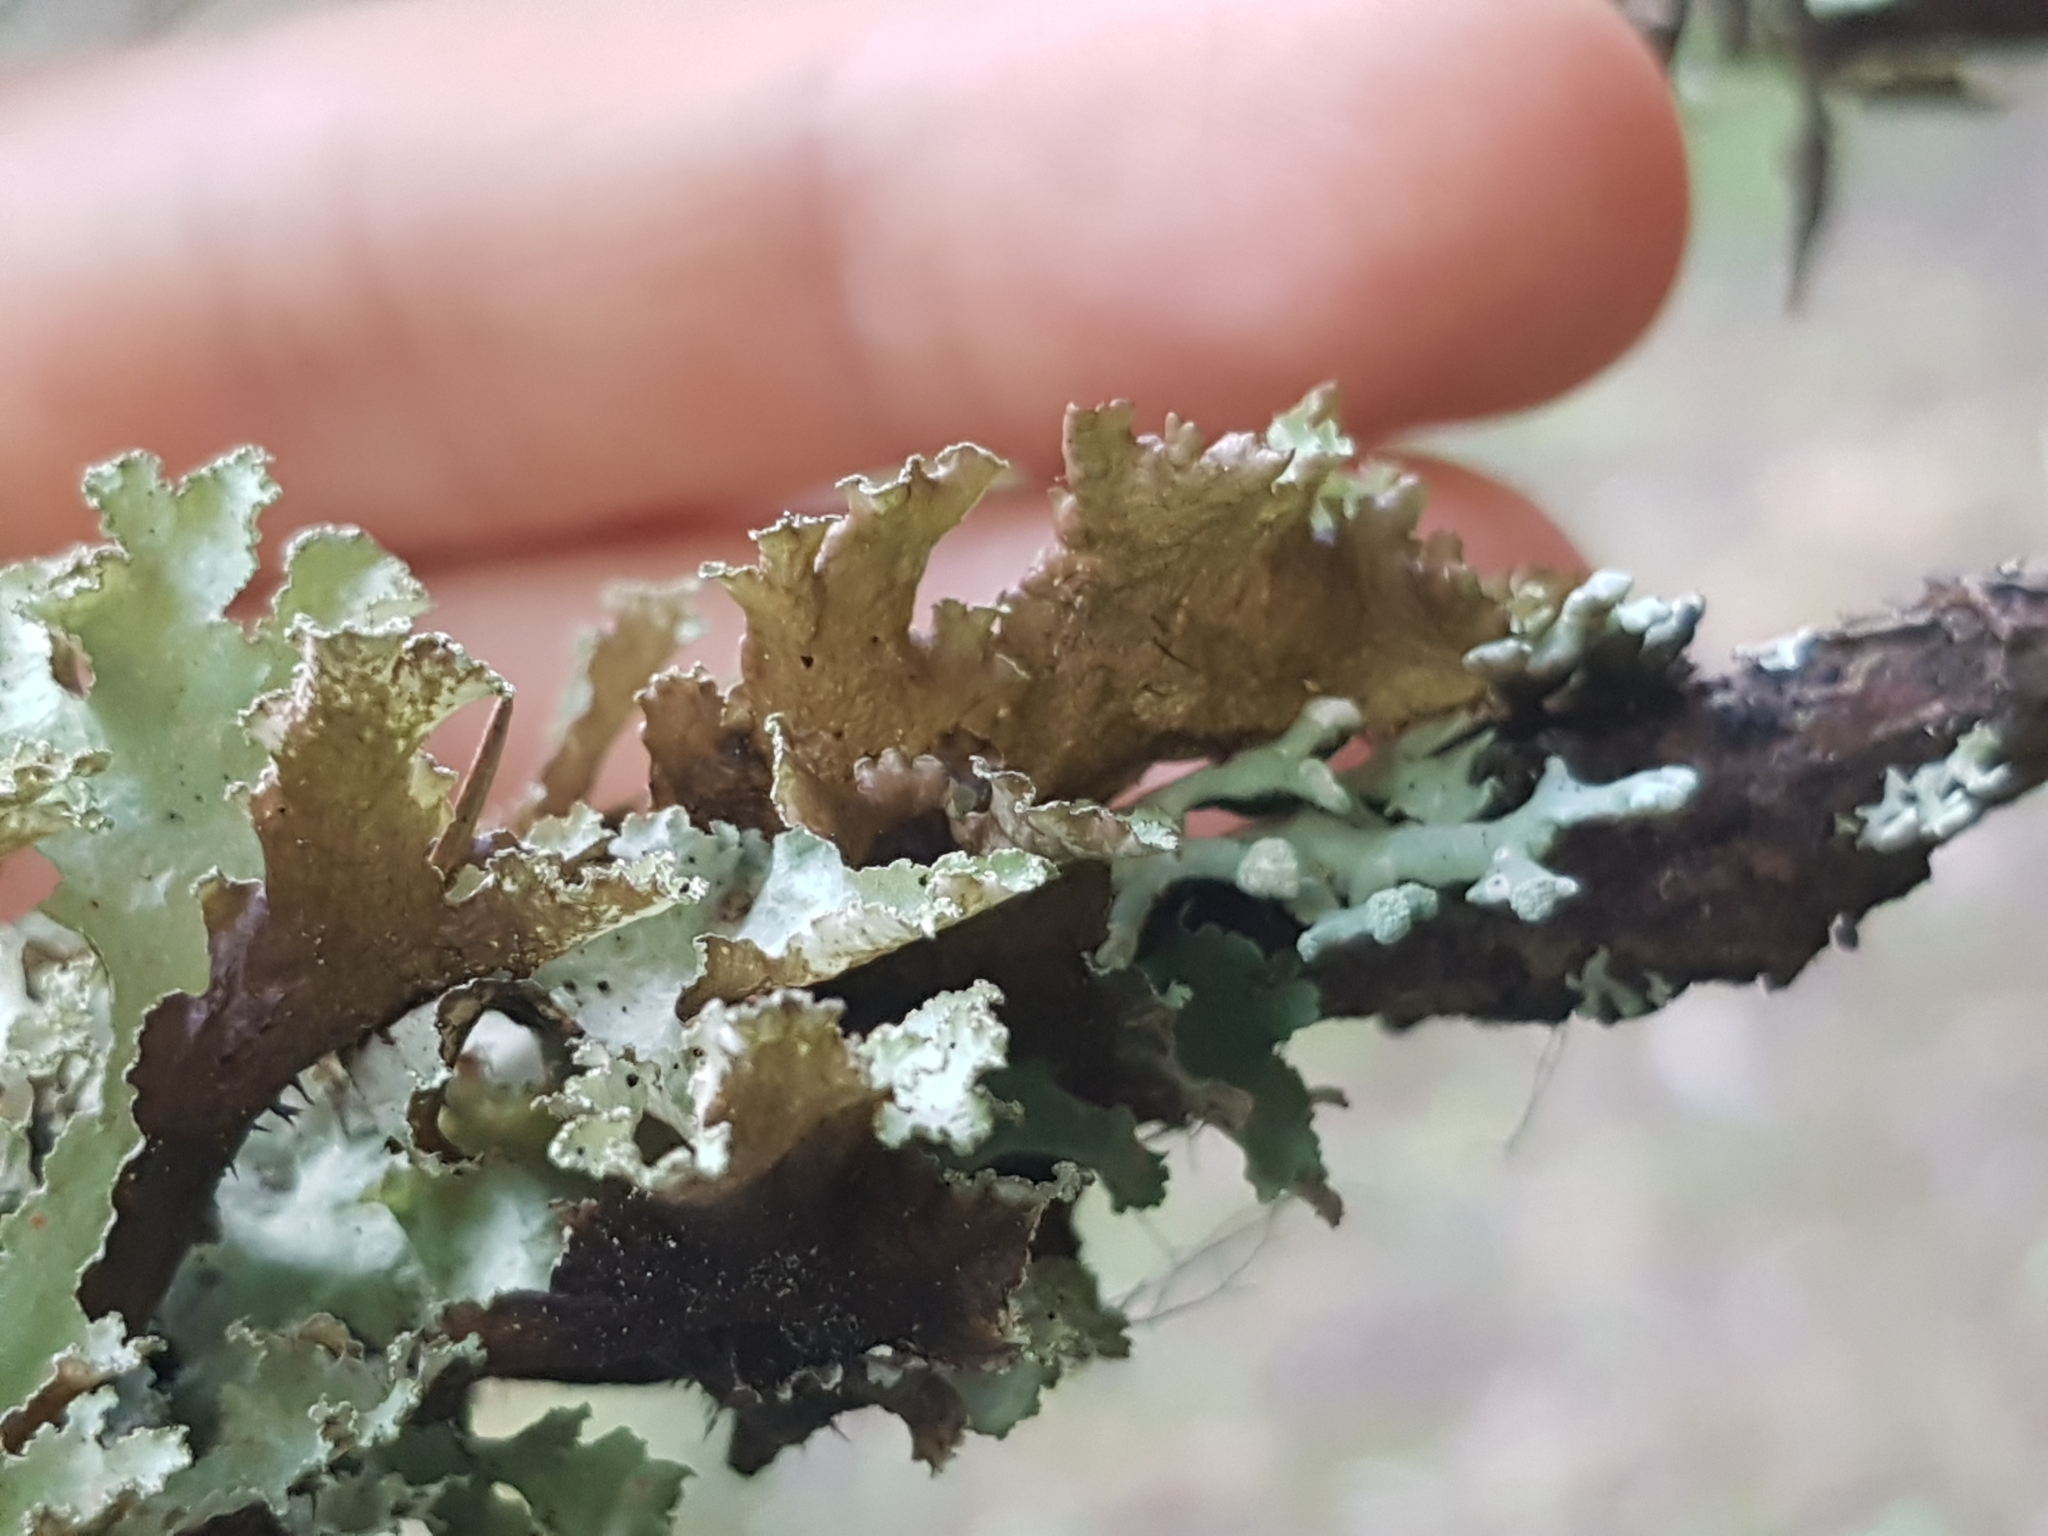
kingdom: Fungi
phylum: Ascomycota
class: Lecanoromycetes
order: Lecanorales
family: Parmeliaceae
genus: Platismatia
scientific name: Platismatia glauca
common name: Varied rag lichen
